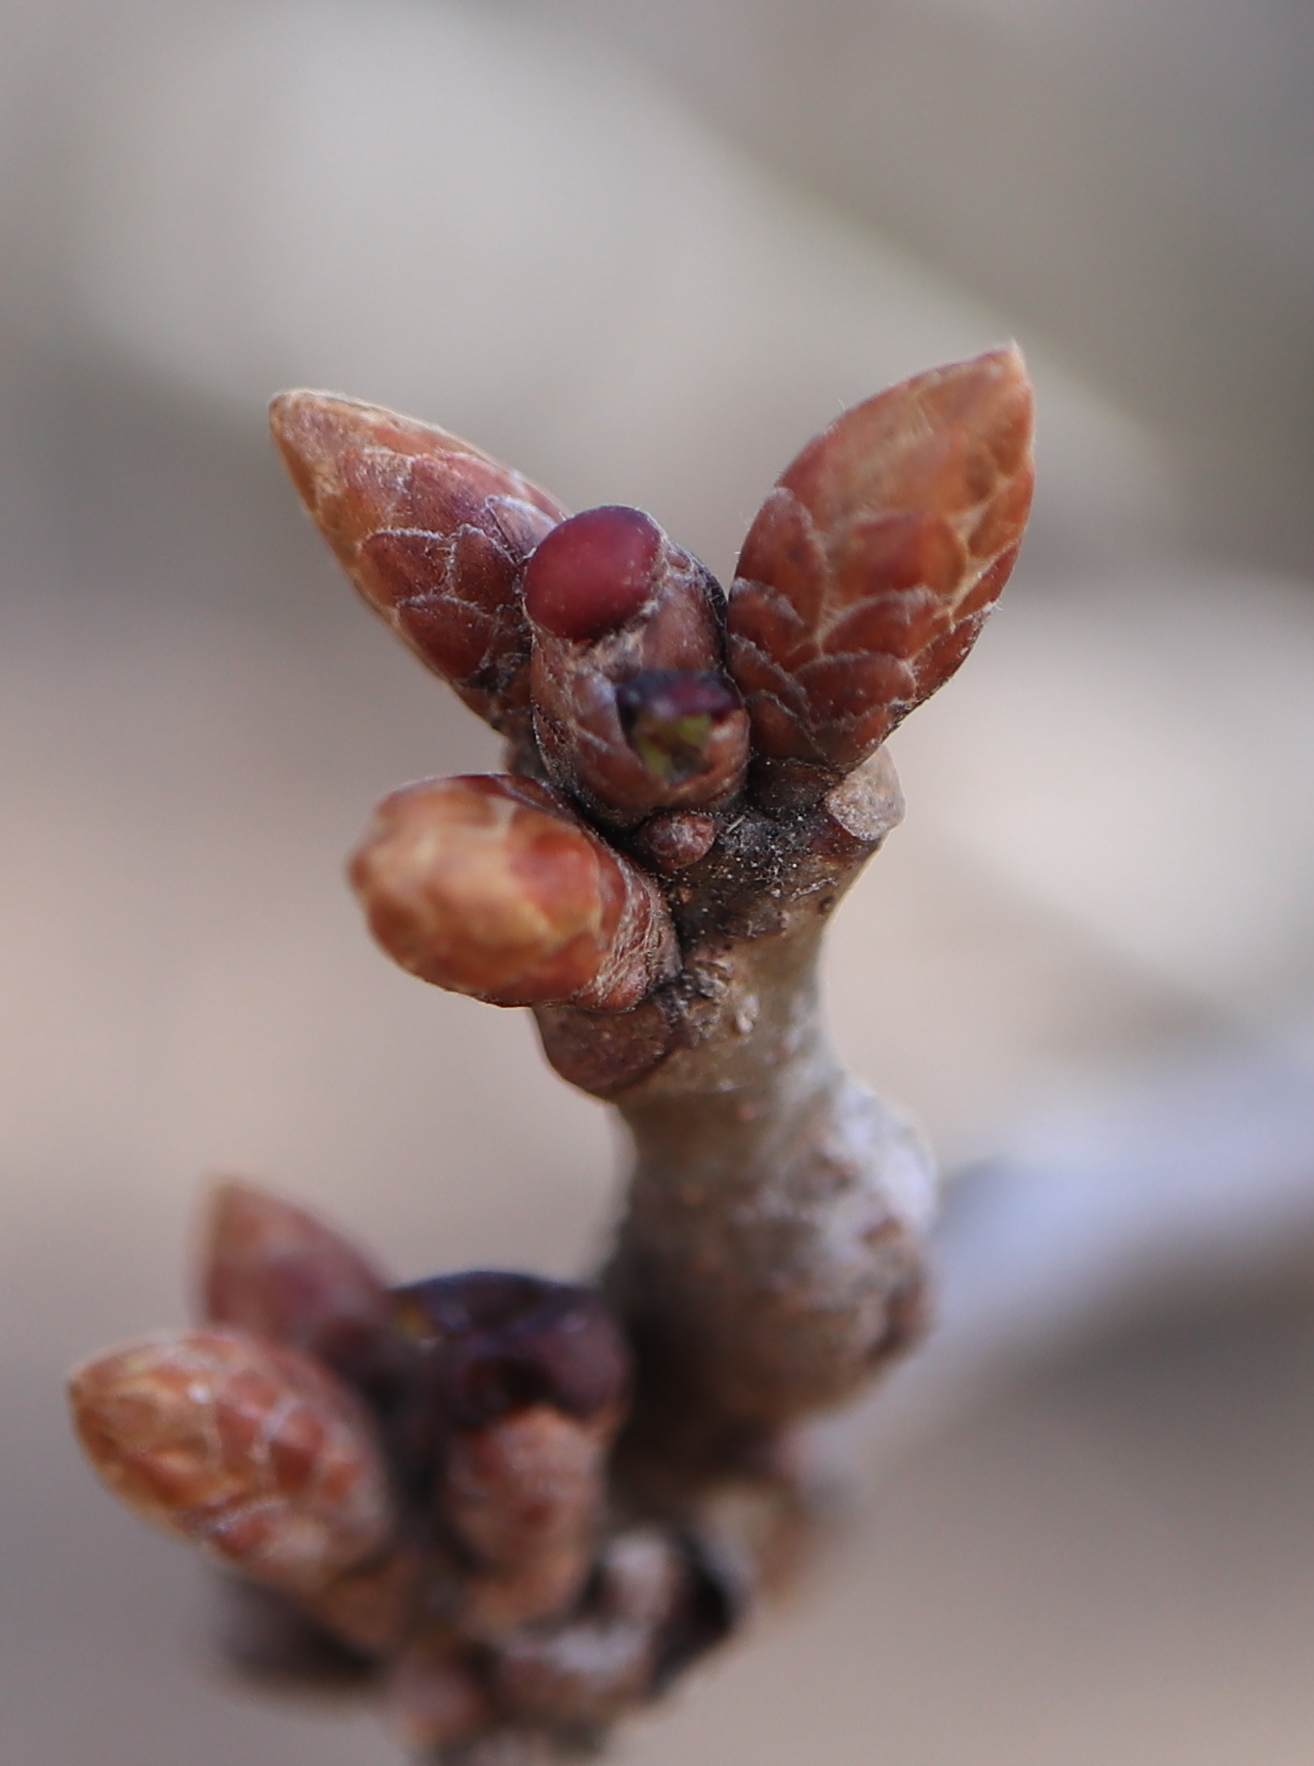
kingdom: Animalia
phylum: Arthropoda
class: Insecta
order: Hymenoptera
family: Cynipidae
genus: Neuroterus
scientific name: Neuroterus
